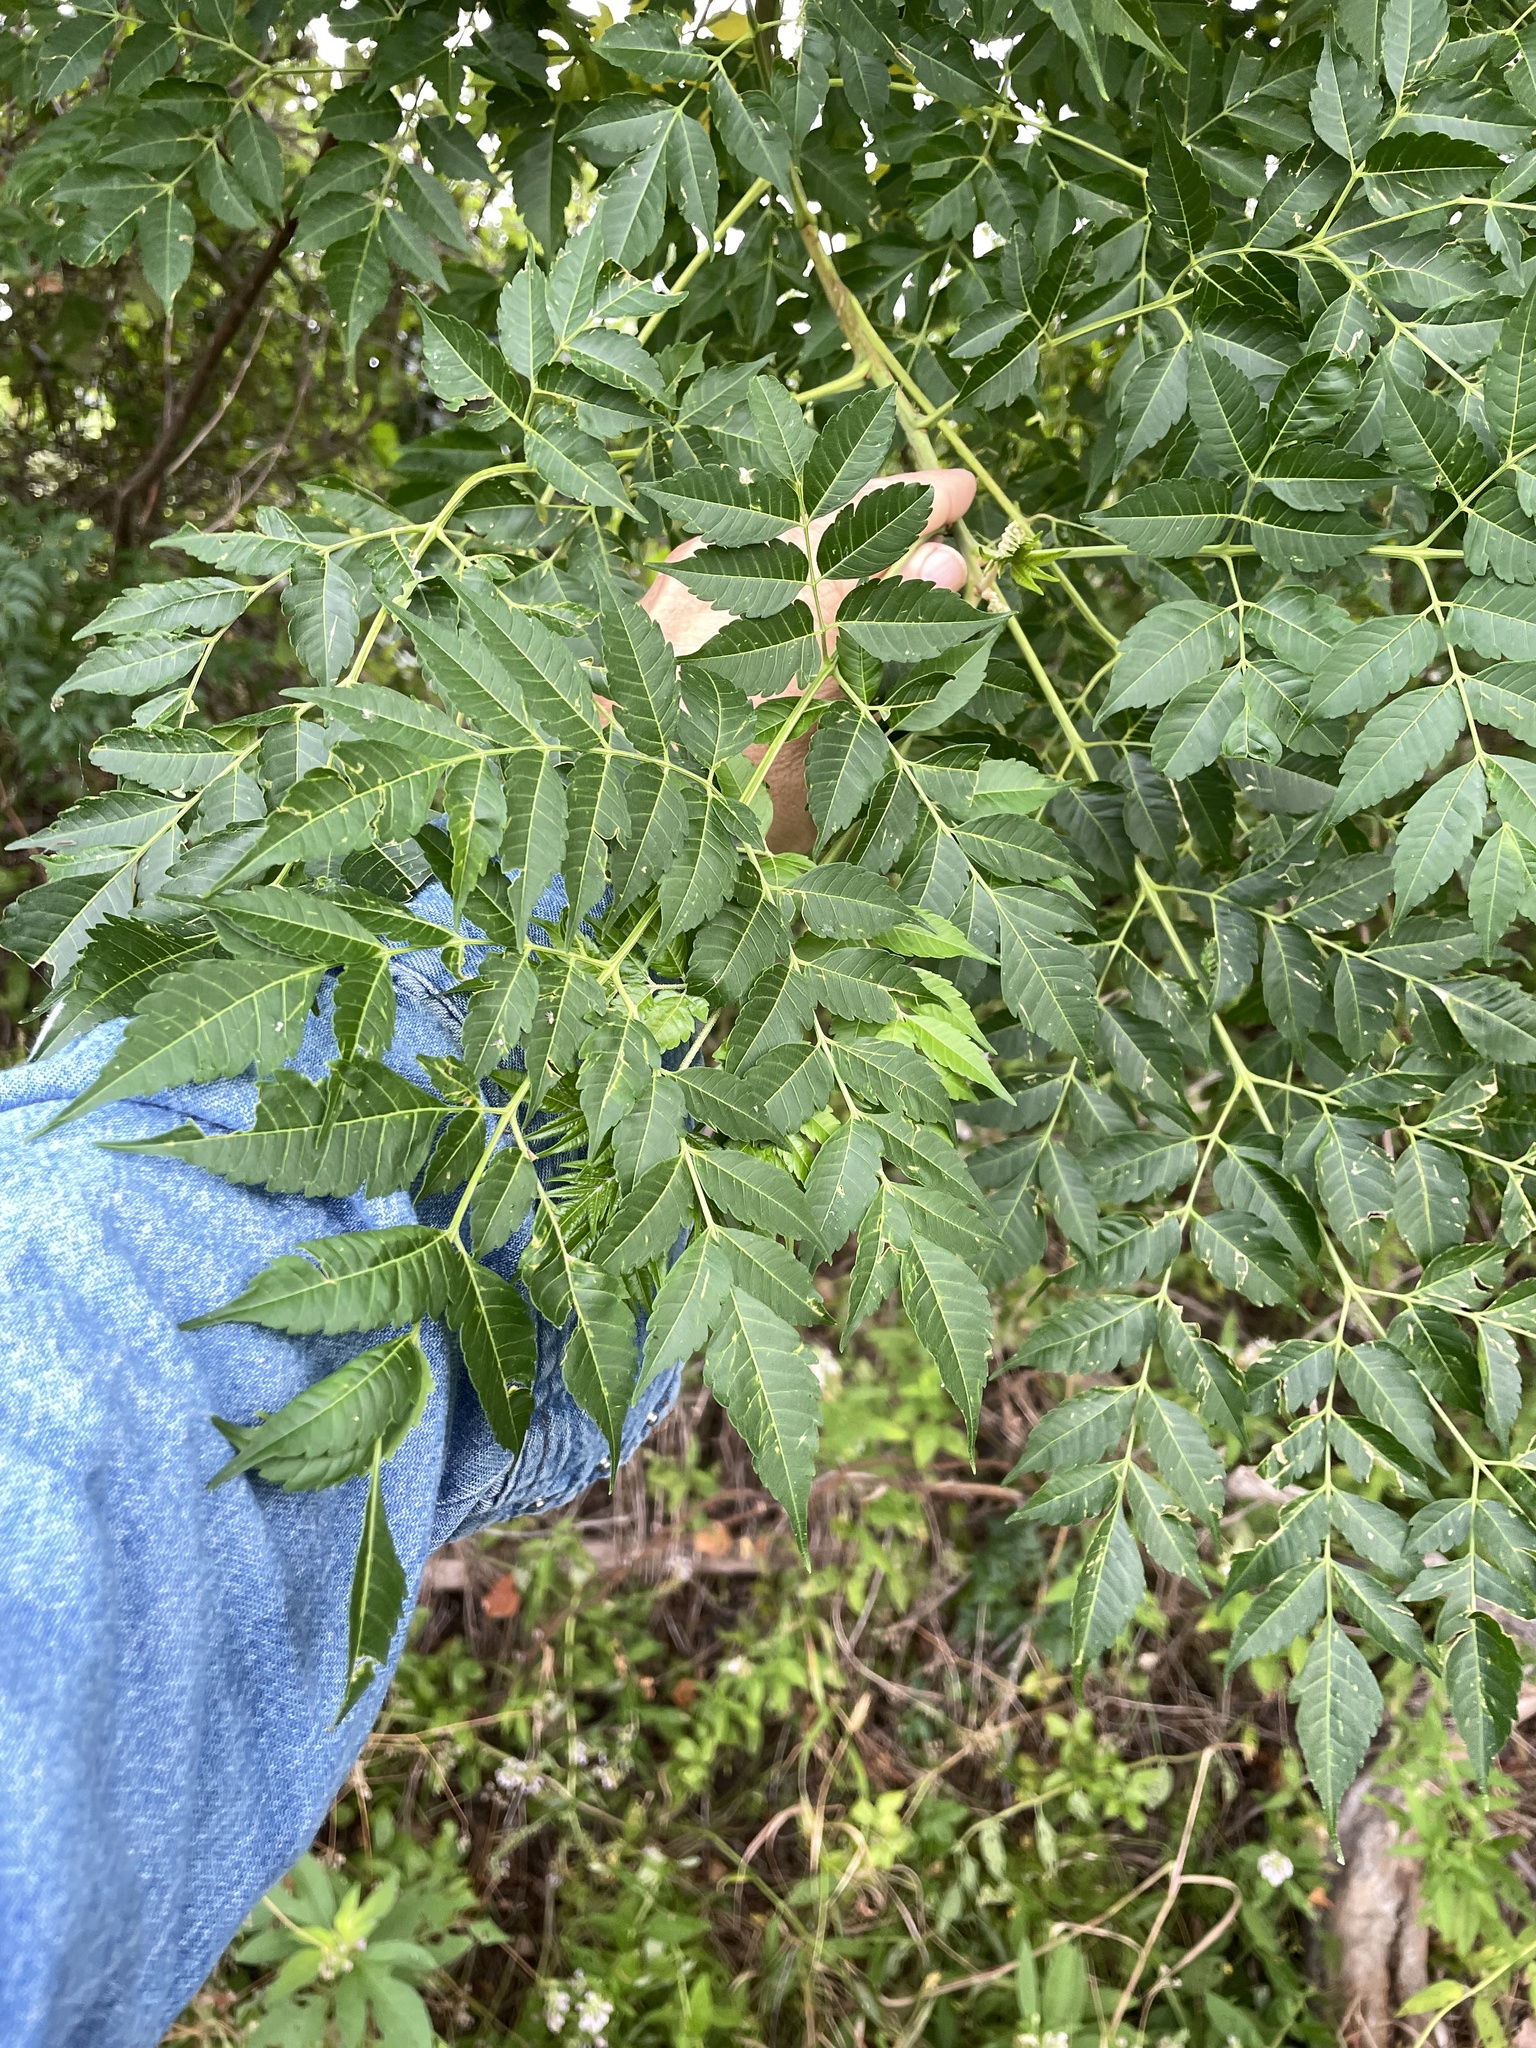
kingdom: Plantae
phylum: Tracheophyta
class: Magnoliopsida
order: Sapindales
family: Meliaceae
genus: Melia
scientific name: Melia azedarach
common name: Chinaberrytree
